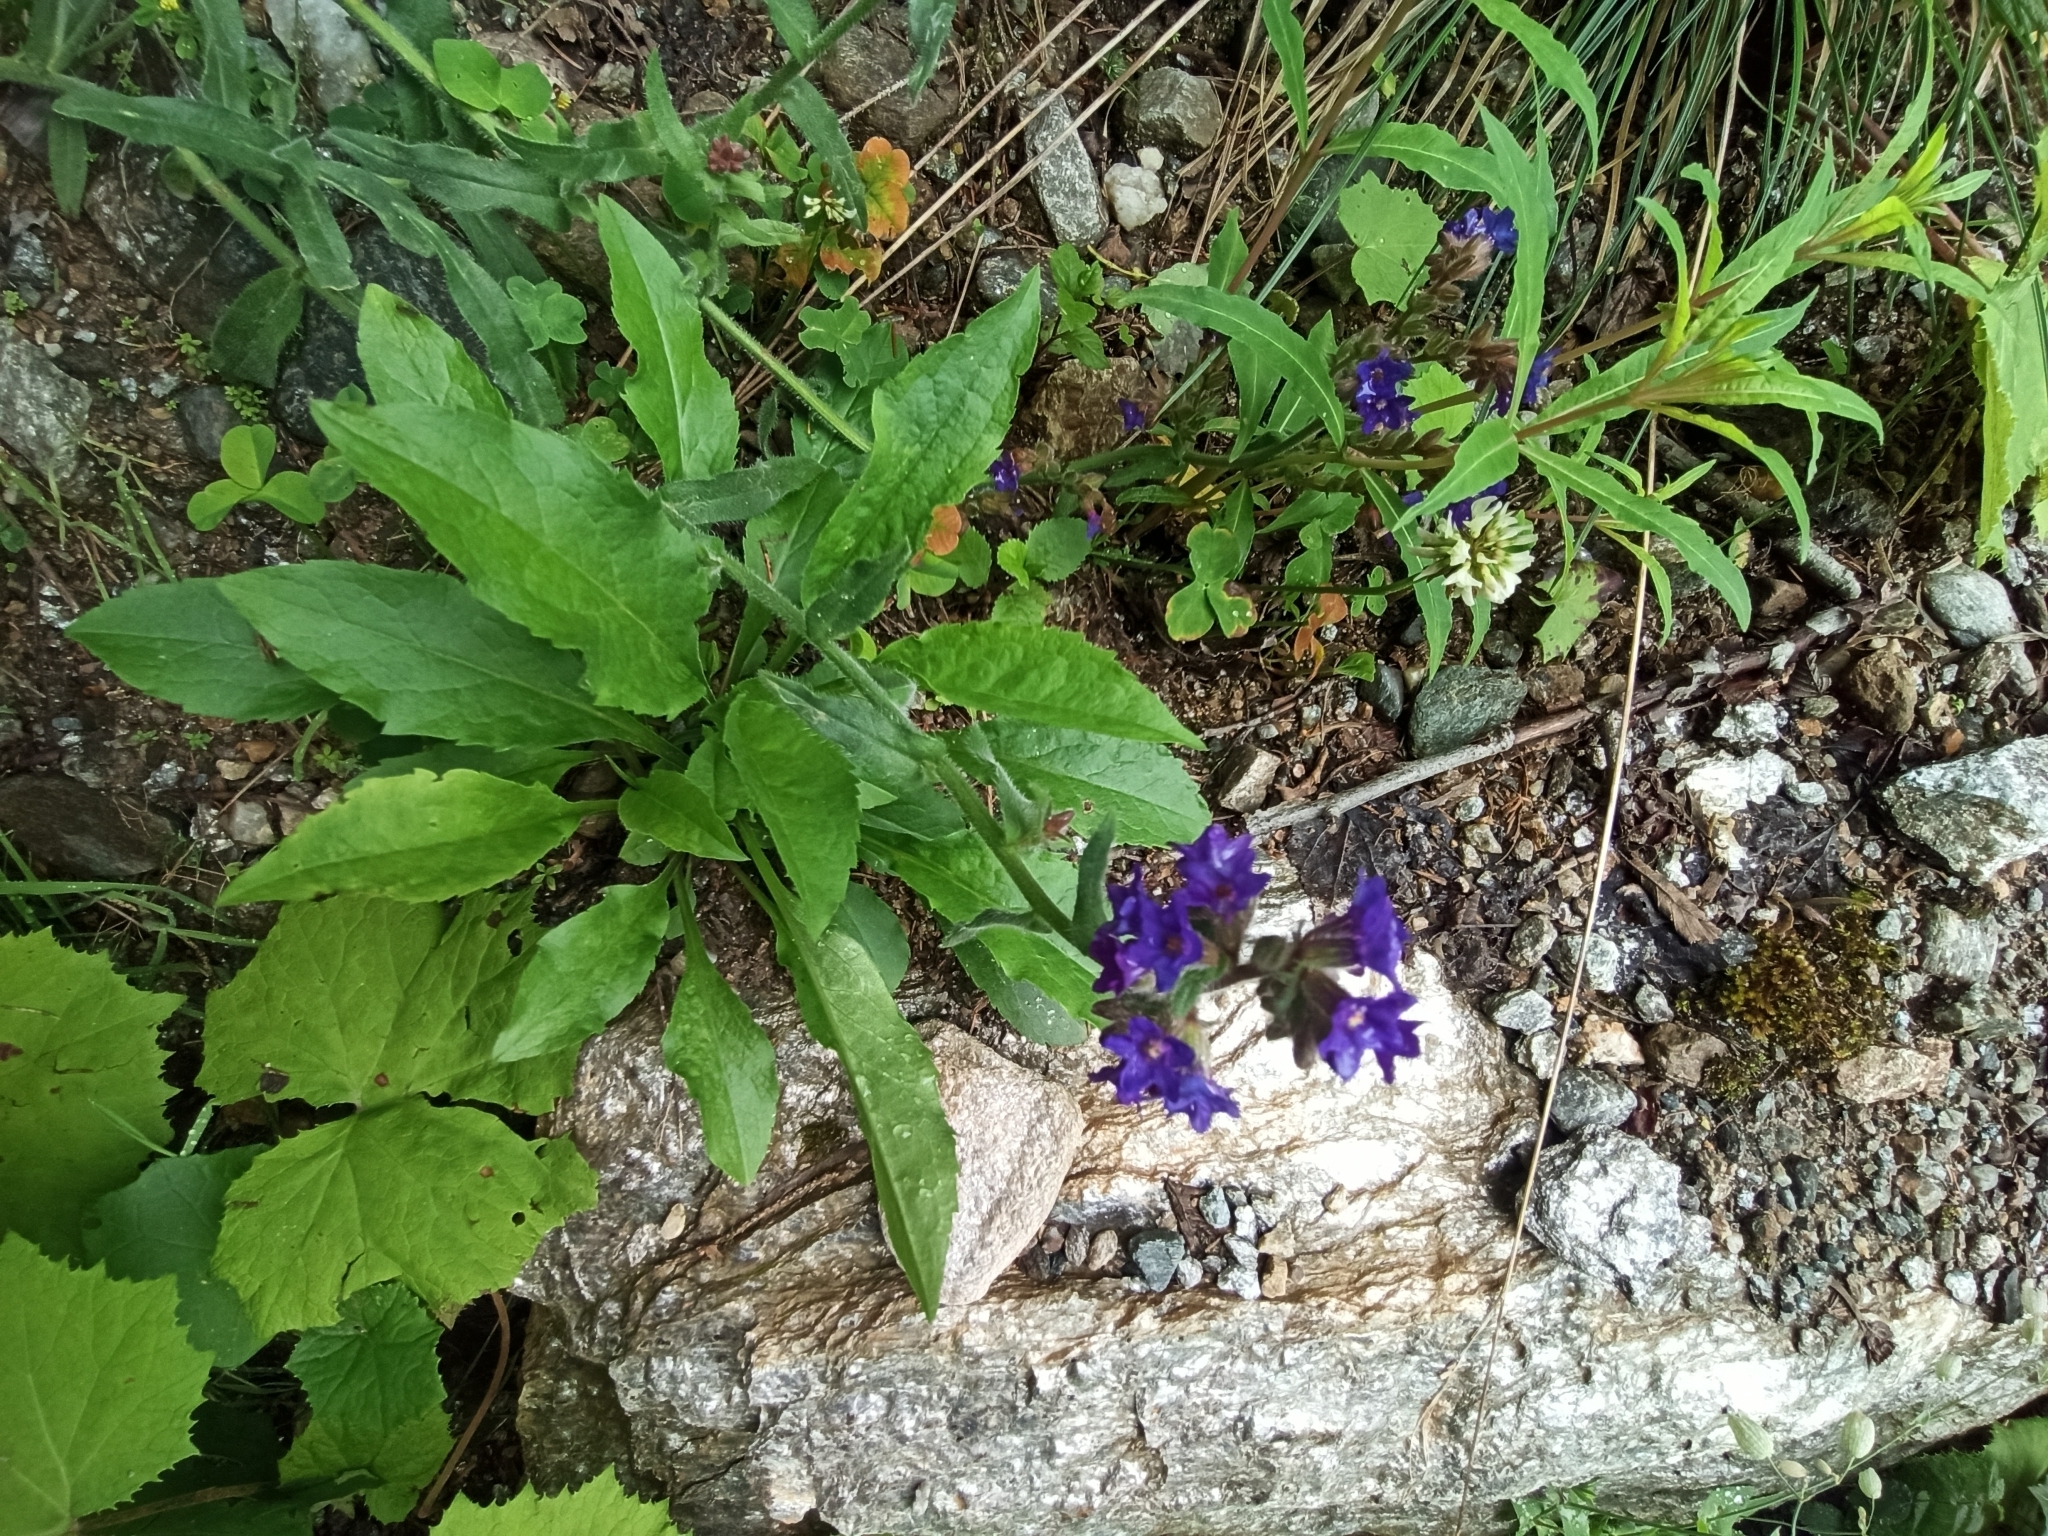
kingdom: Plantae
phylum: Tracheophyta
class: Magnoliopsida
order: Boraginales
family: Boraginaceae
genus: Anchusa
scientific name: Anchusa officinalis
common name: Alkanet
